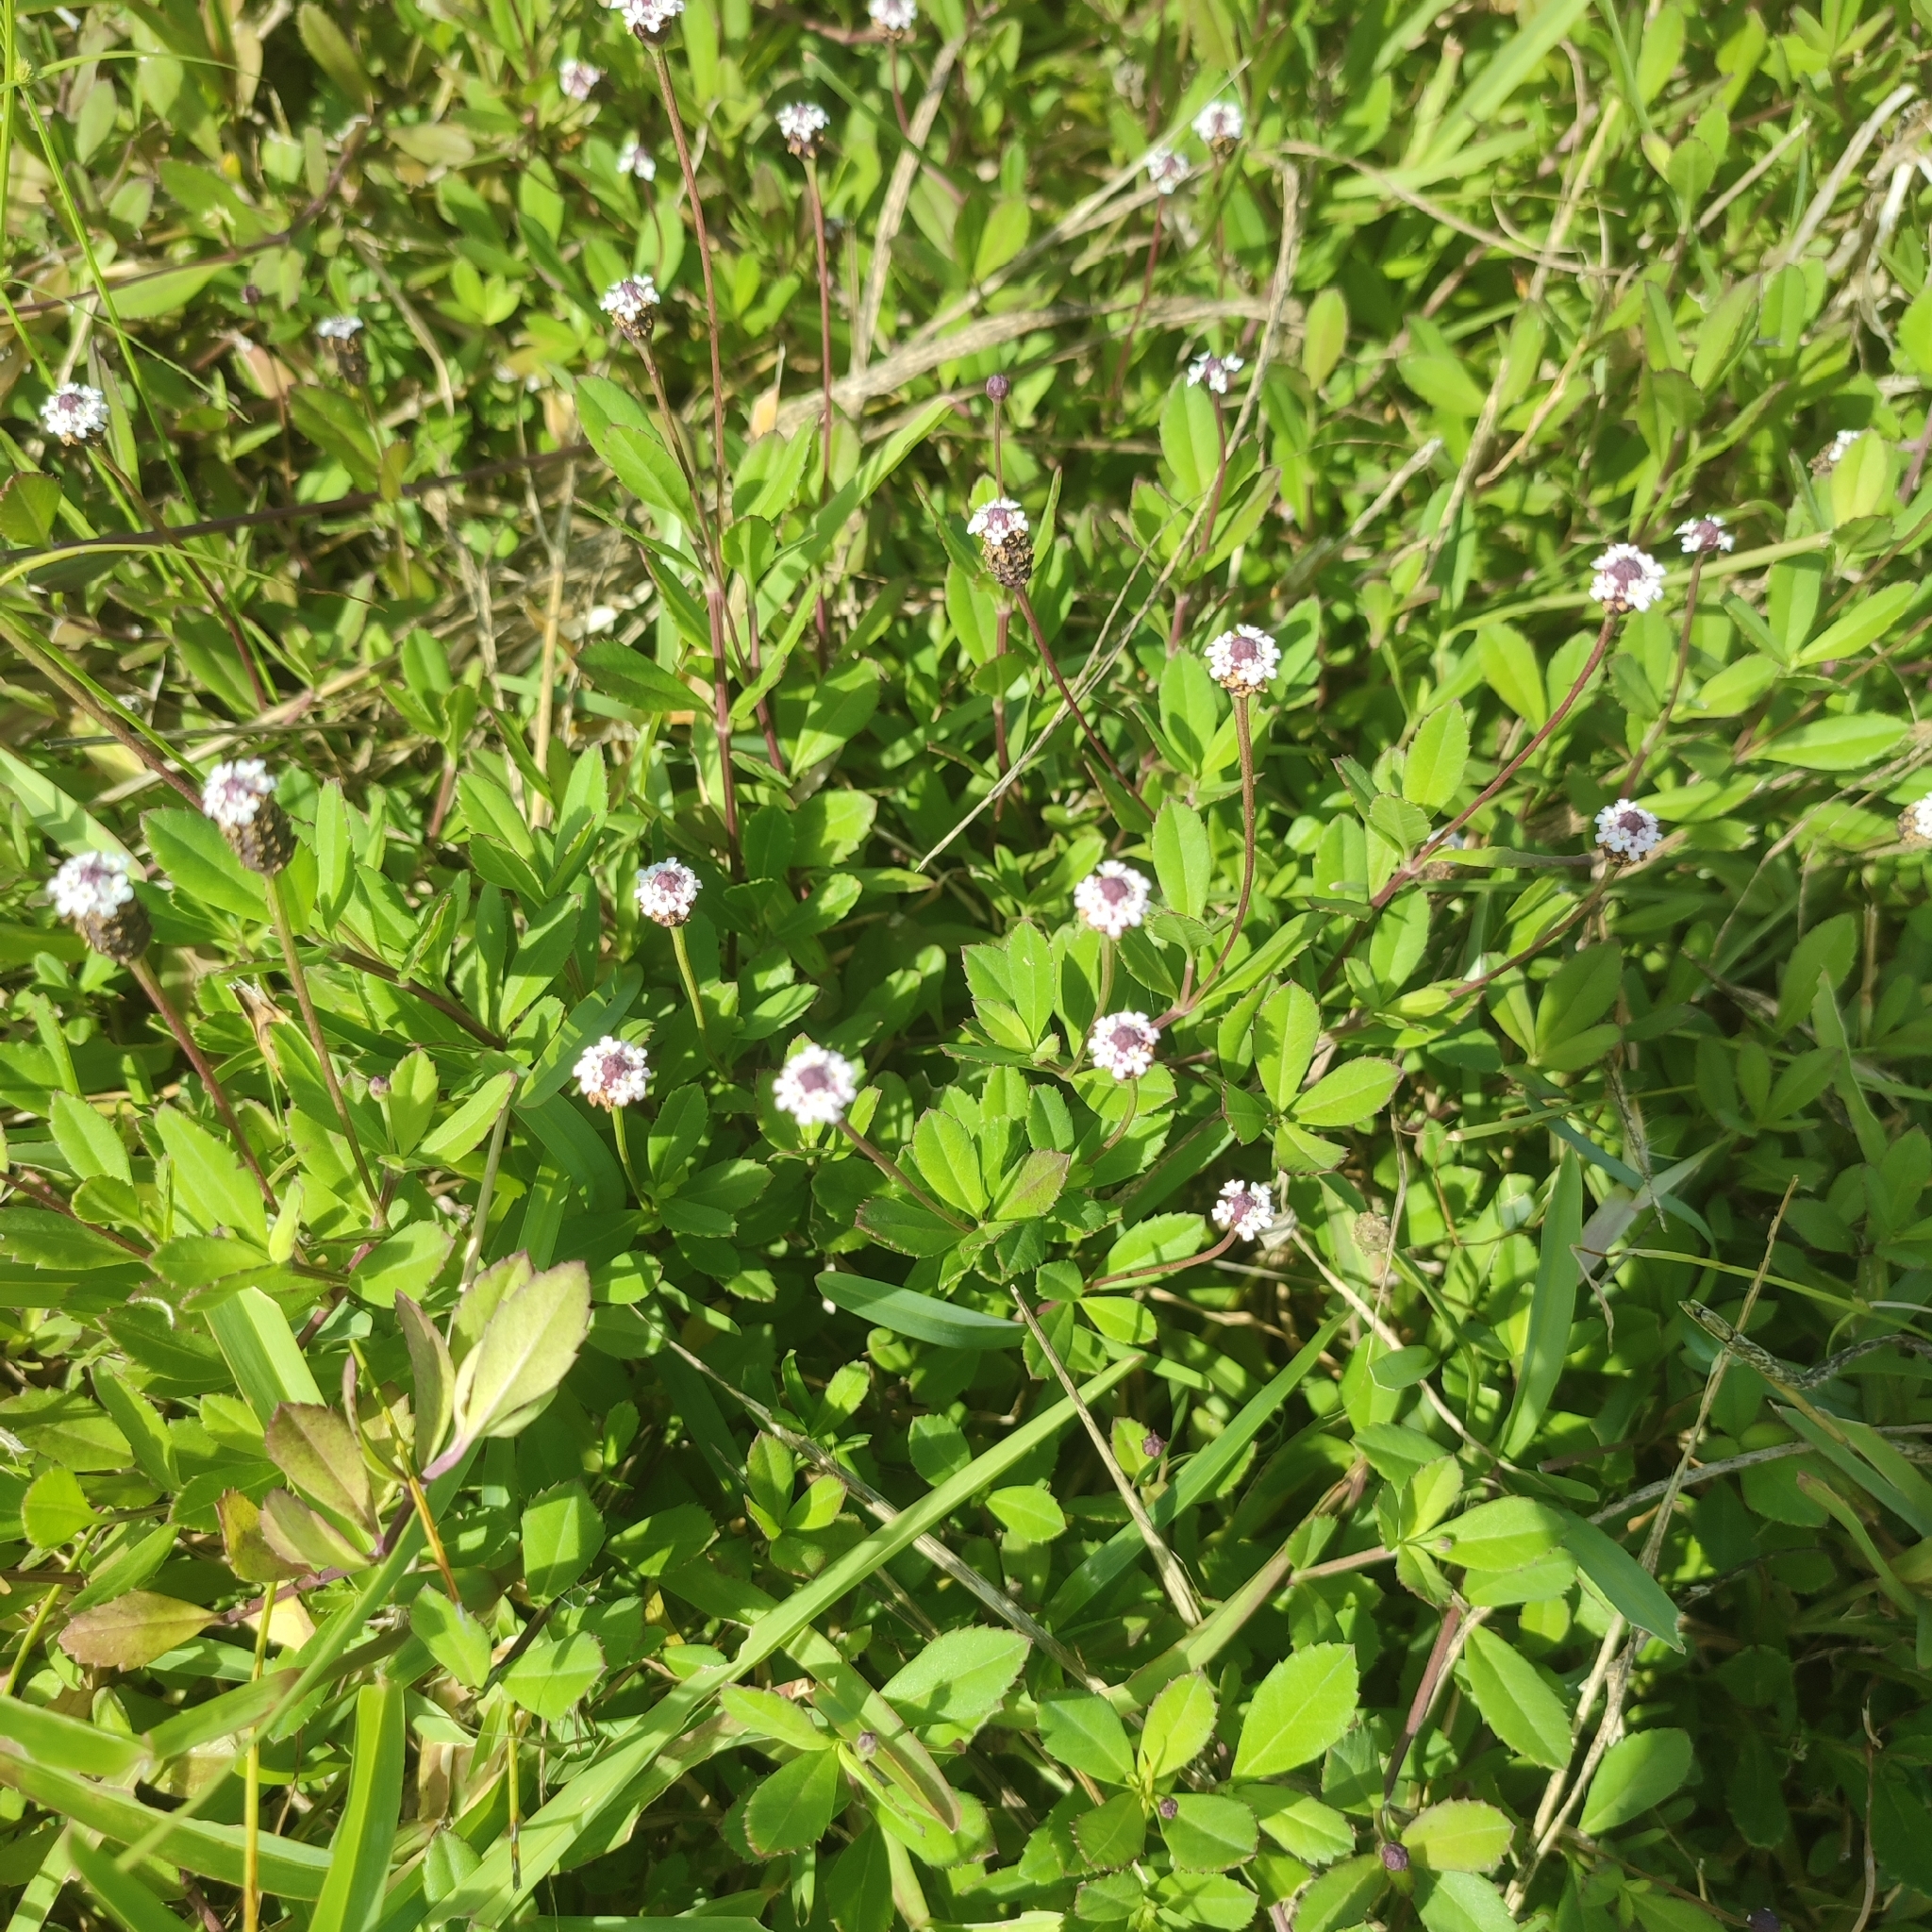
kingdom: Plantae
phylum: Tracheophyta
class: Magnoliopsida
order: Lamiales
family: Verbenaceae
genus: Phyla
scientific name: Phyla nodiflora
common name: Frogfruit
